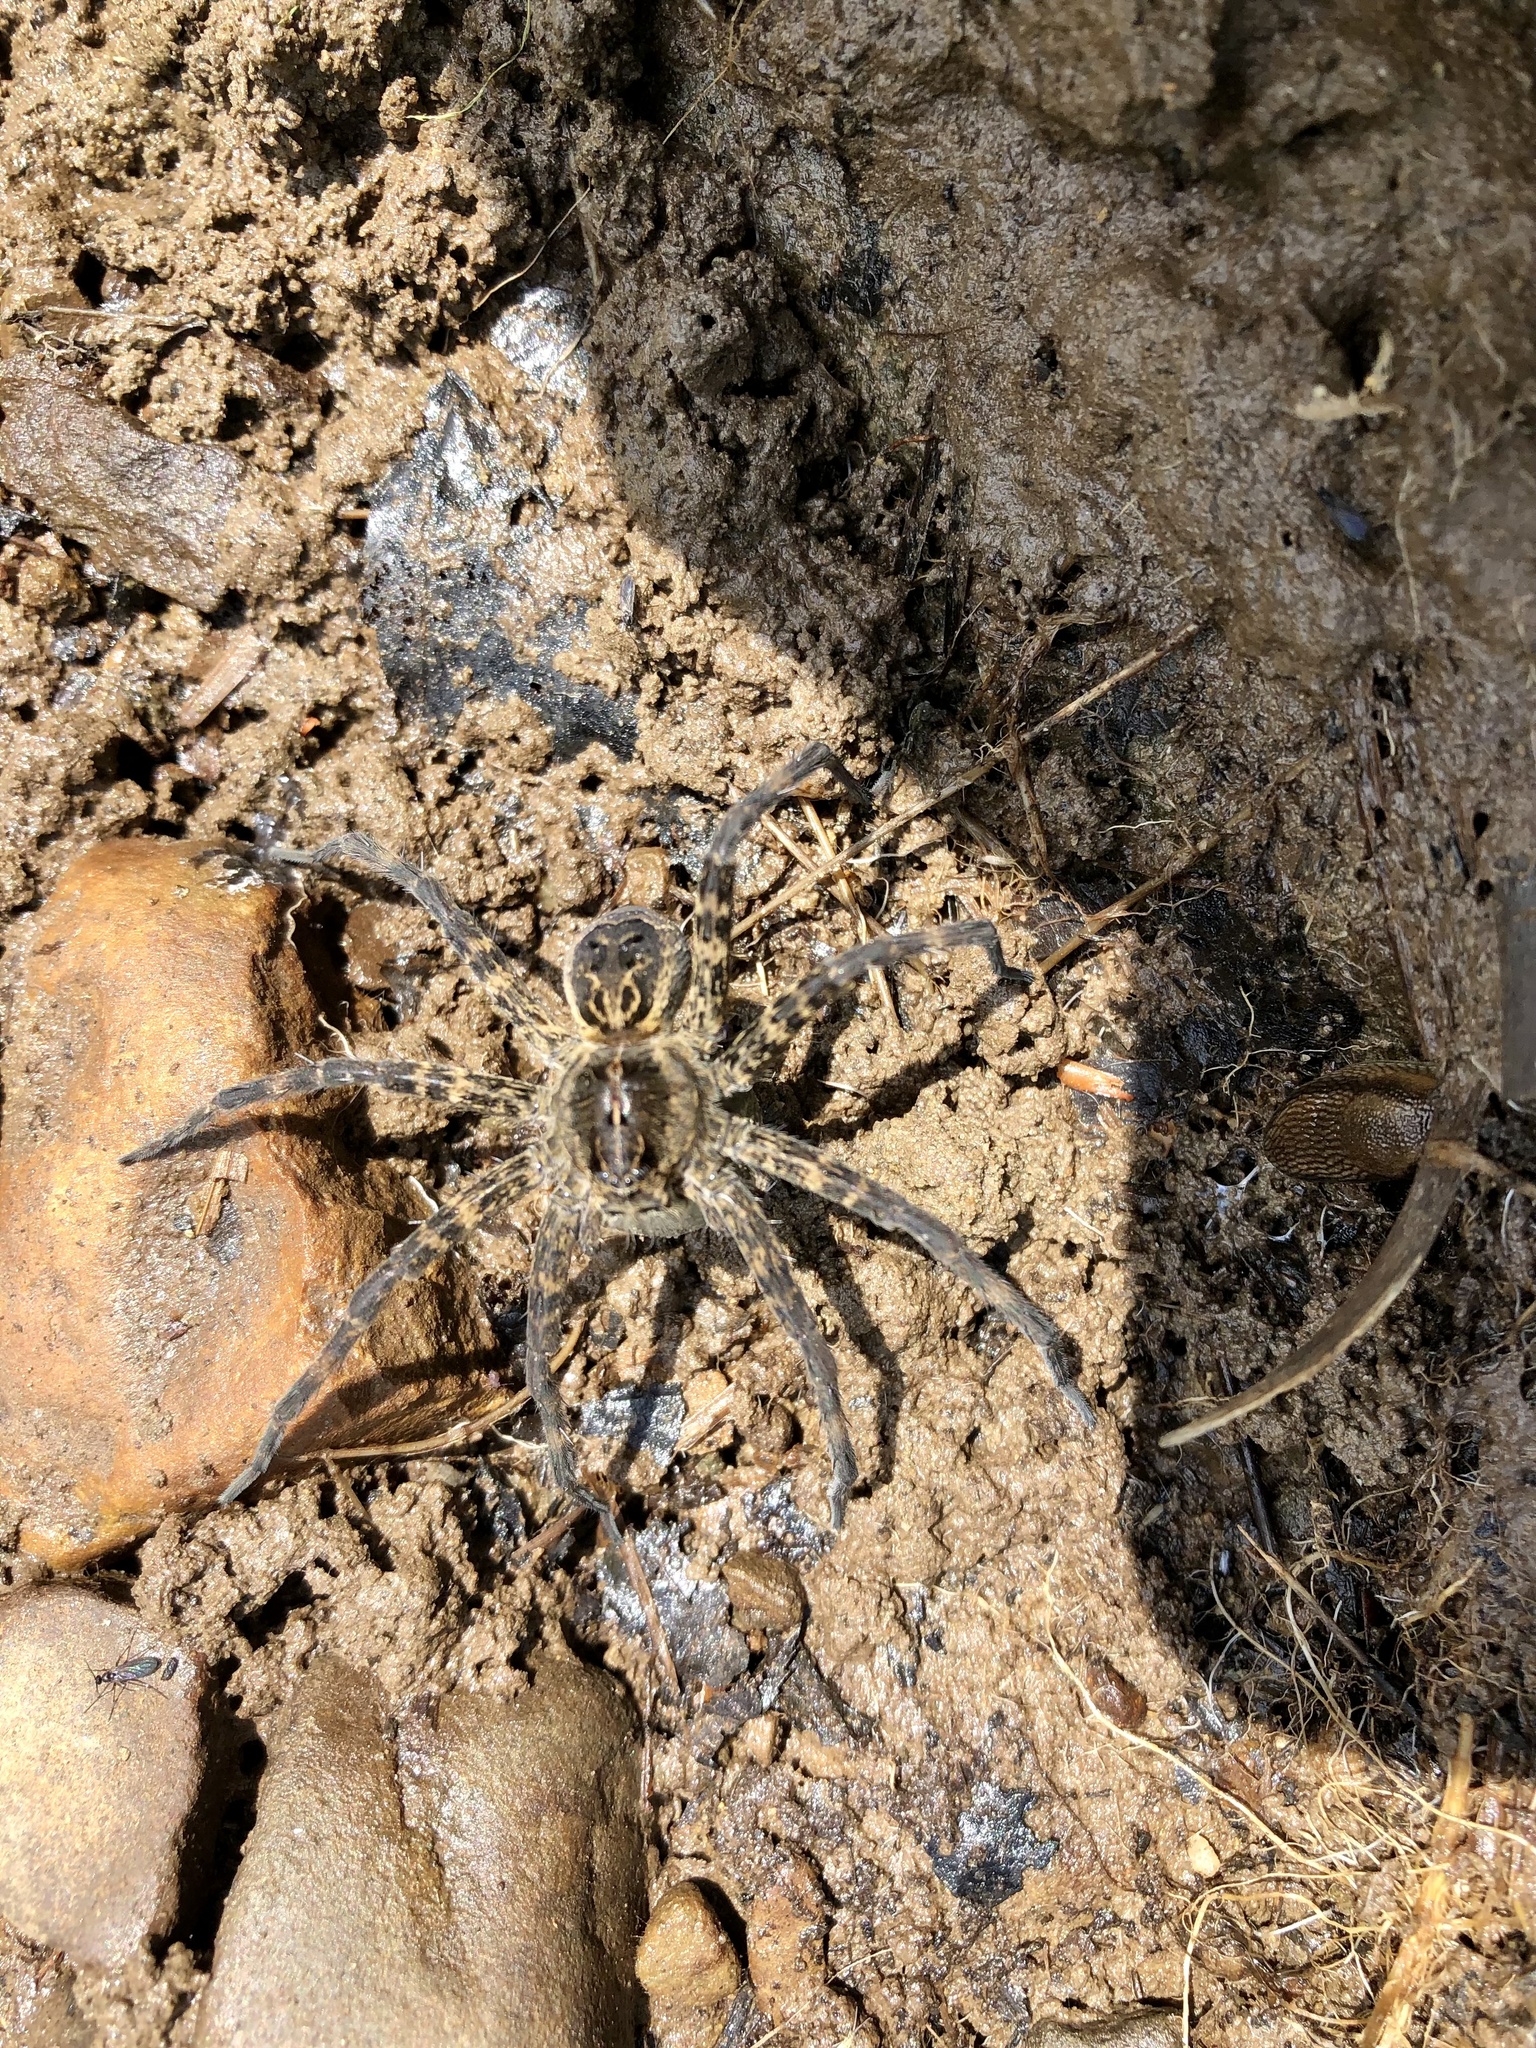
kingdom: Animalia
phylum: Arthropoda
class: Arachnida
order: Araneae
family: Pisauridae
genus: Dolomedes
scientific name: Dolomedes scriptus
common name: Striped fishing spider
